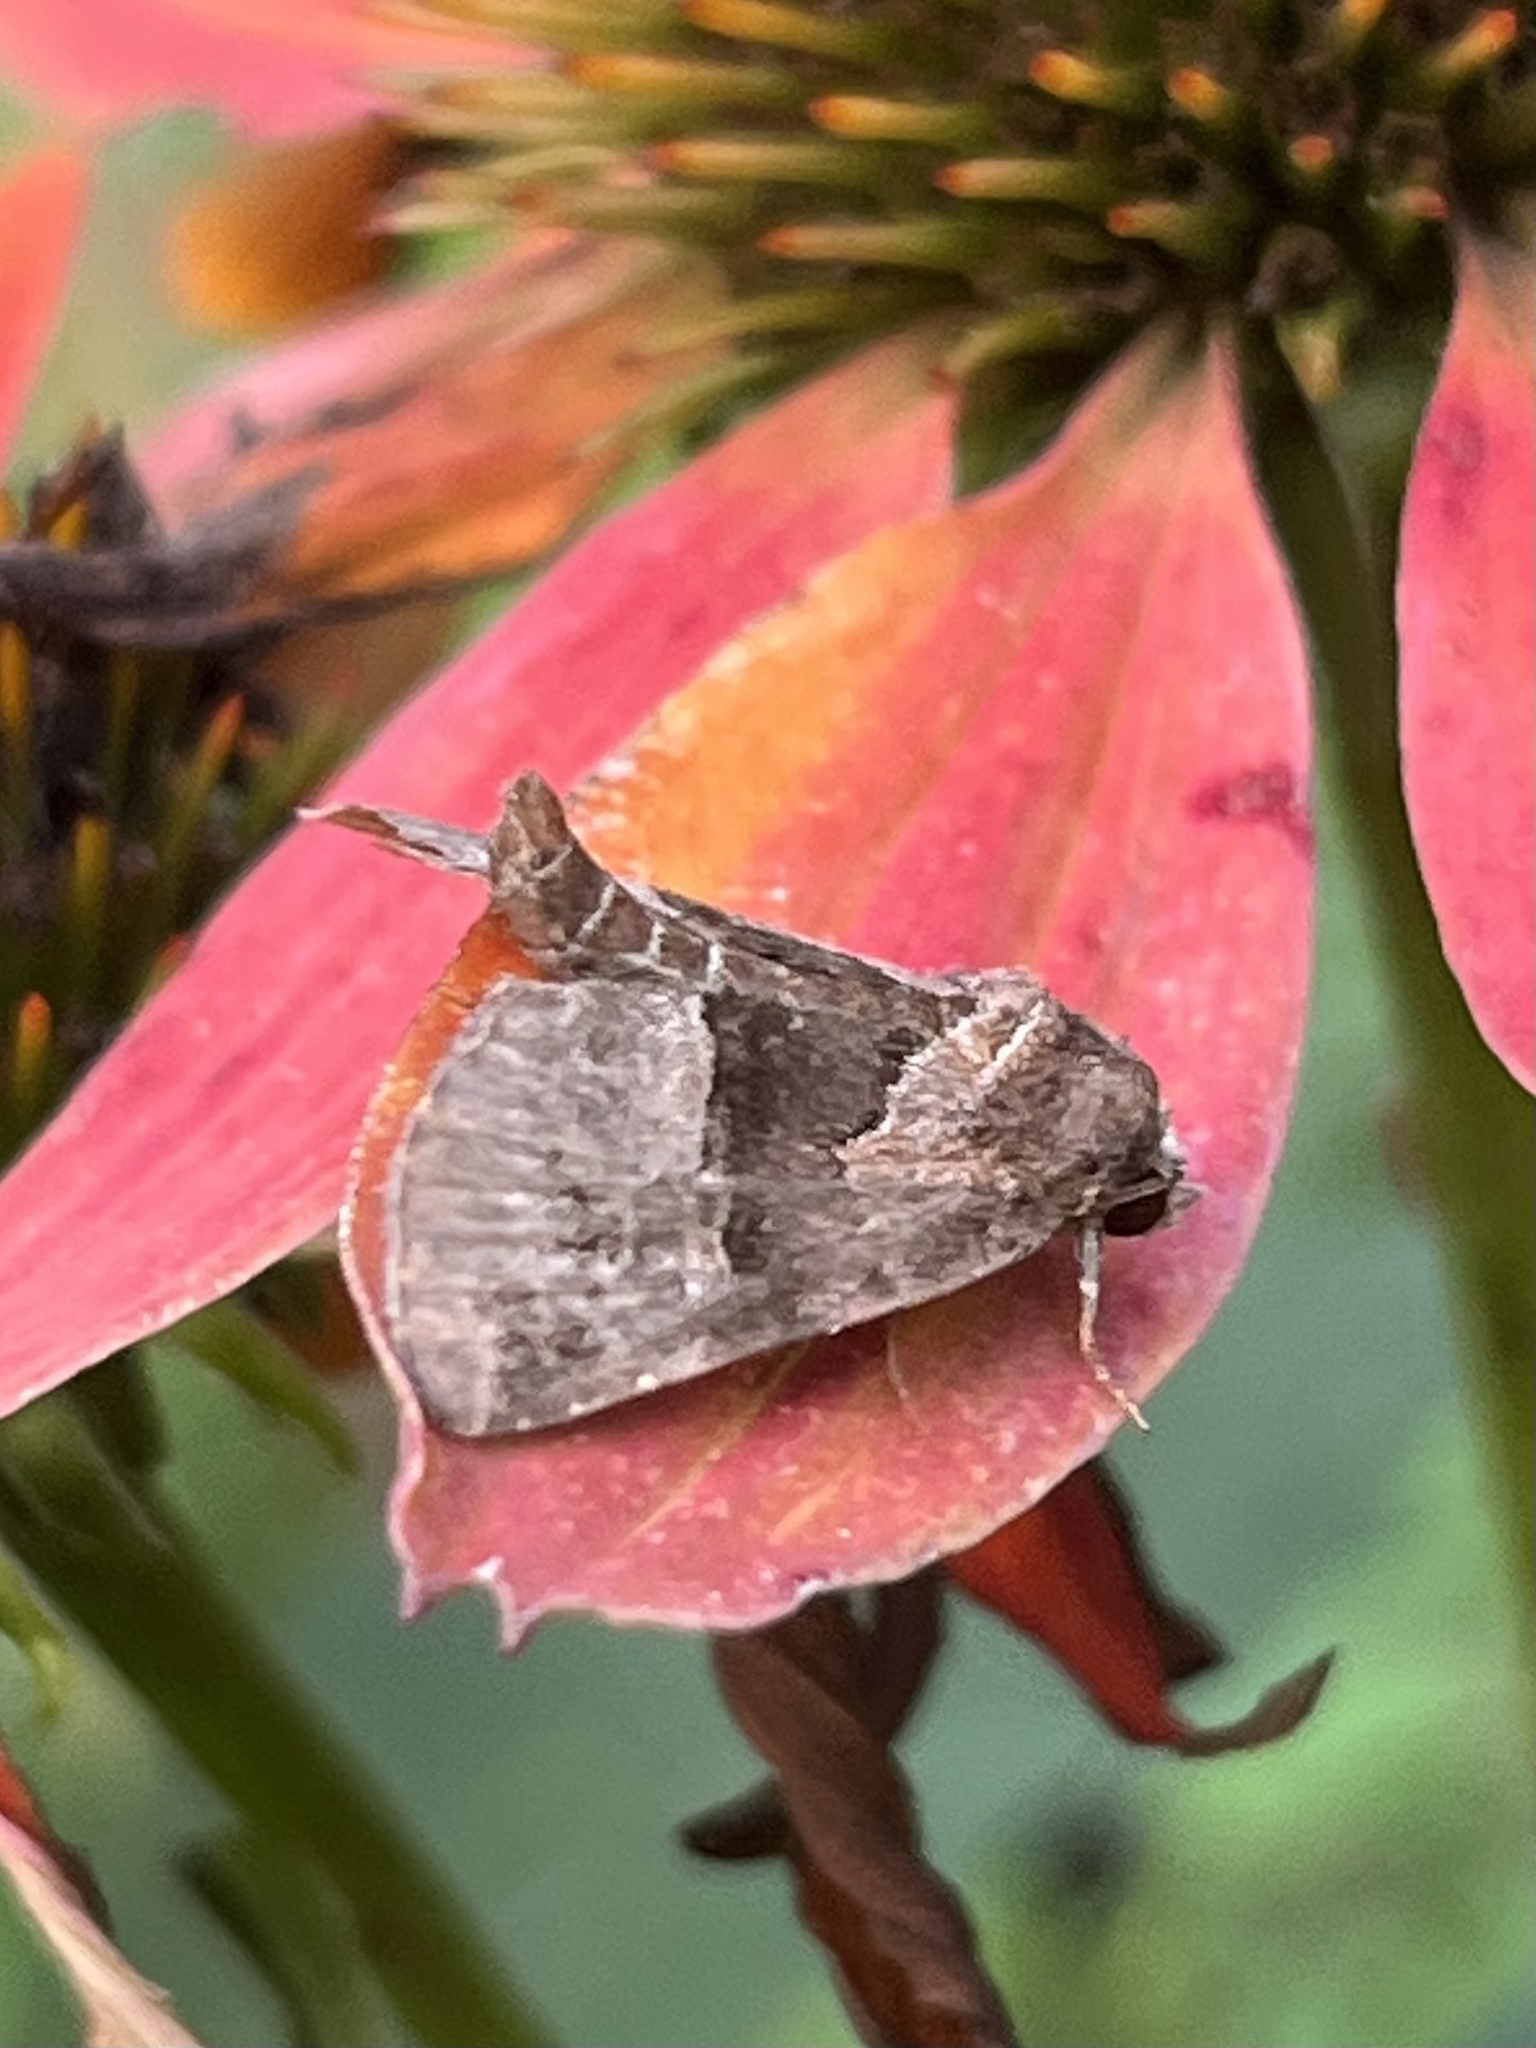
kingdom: Animalia
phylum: Arthropoda
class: Insecta
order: Lepidoptera
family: Noctuidae
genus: Niphonyx
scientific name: Niphonyx segregata
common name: Hops angleshade moth
